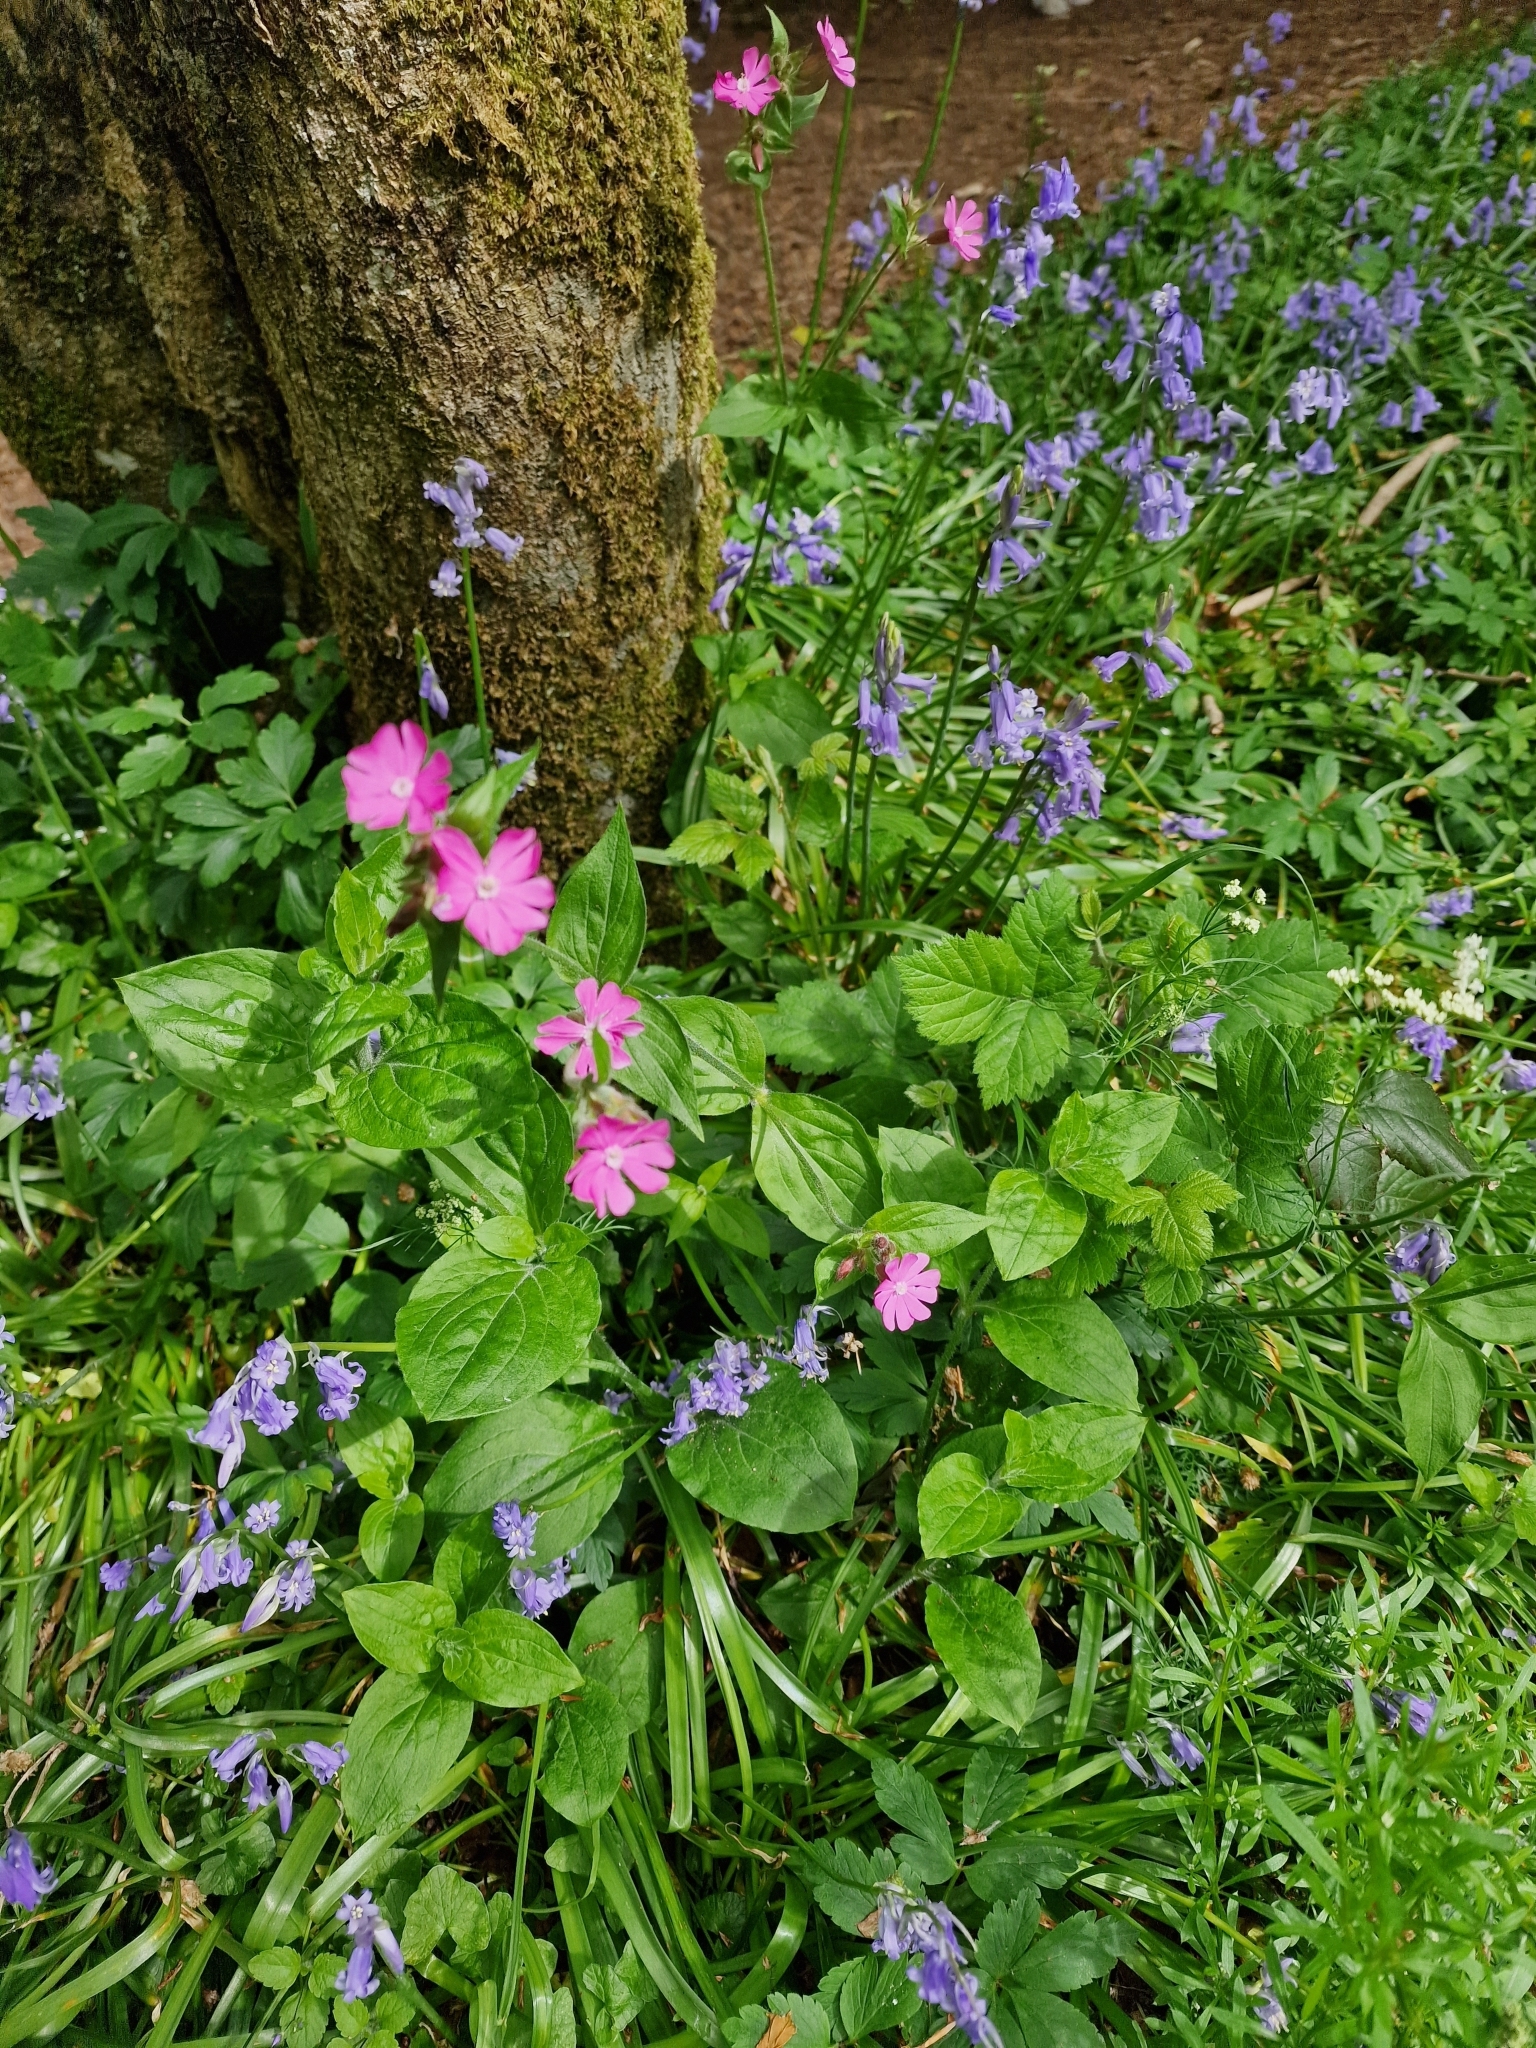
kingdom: Plantae
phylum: Tracheophyta
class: Magnoliopsida
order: Caryophyllales
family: Caryophyllaceae
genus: Silene
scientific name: Silene dioica
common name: Red campion
